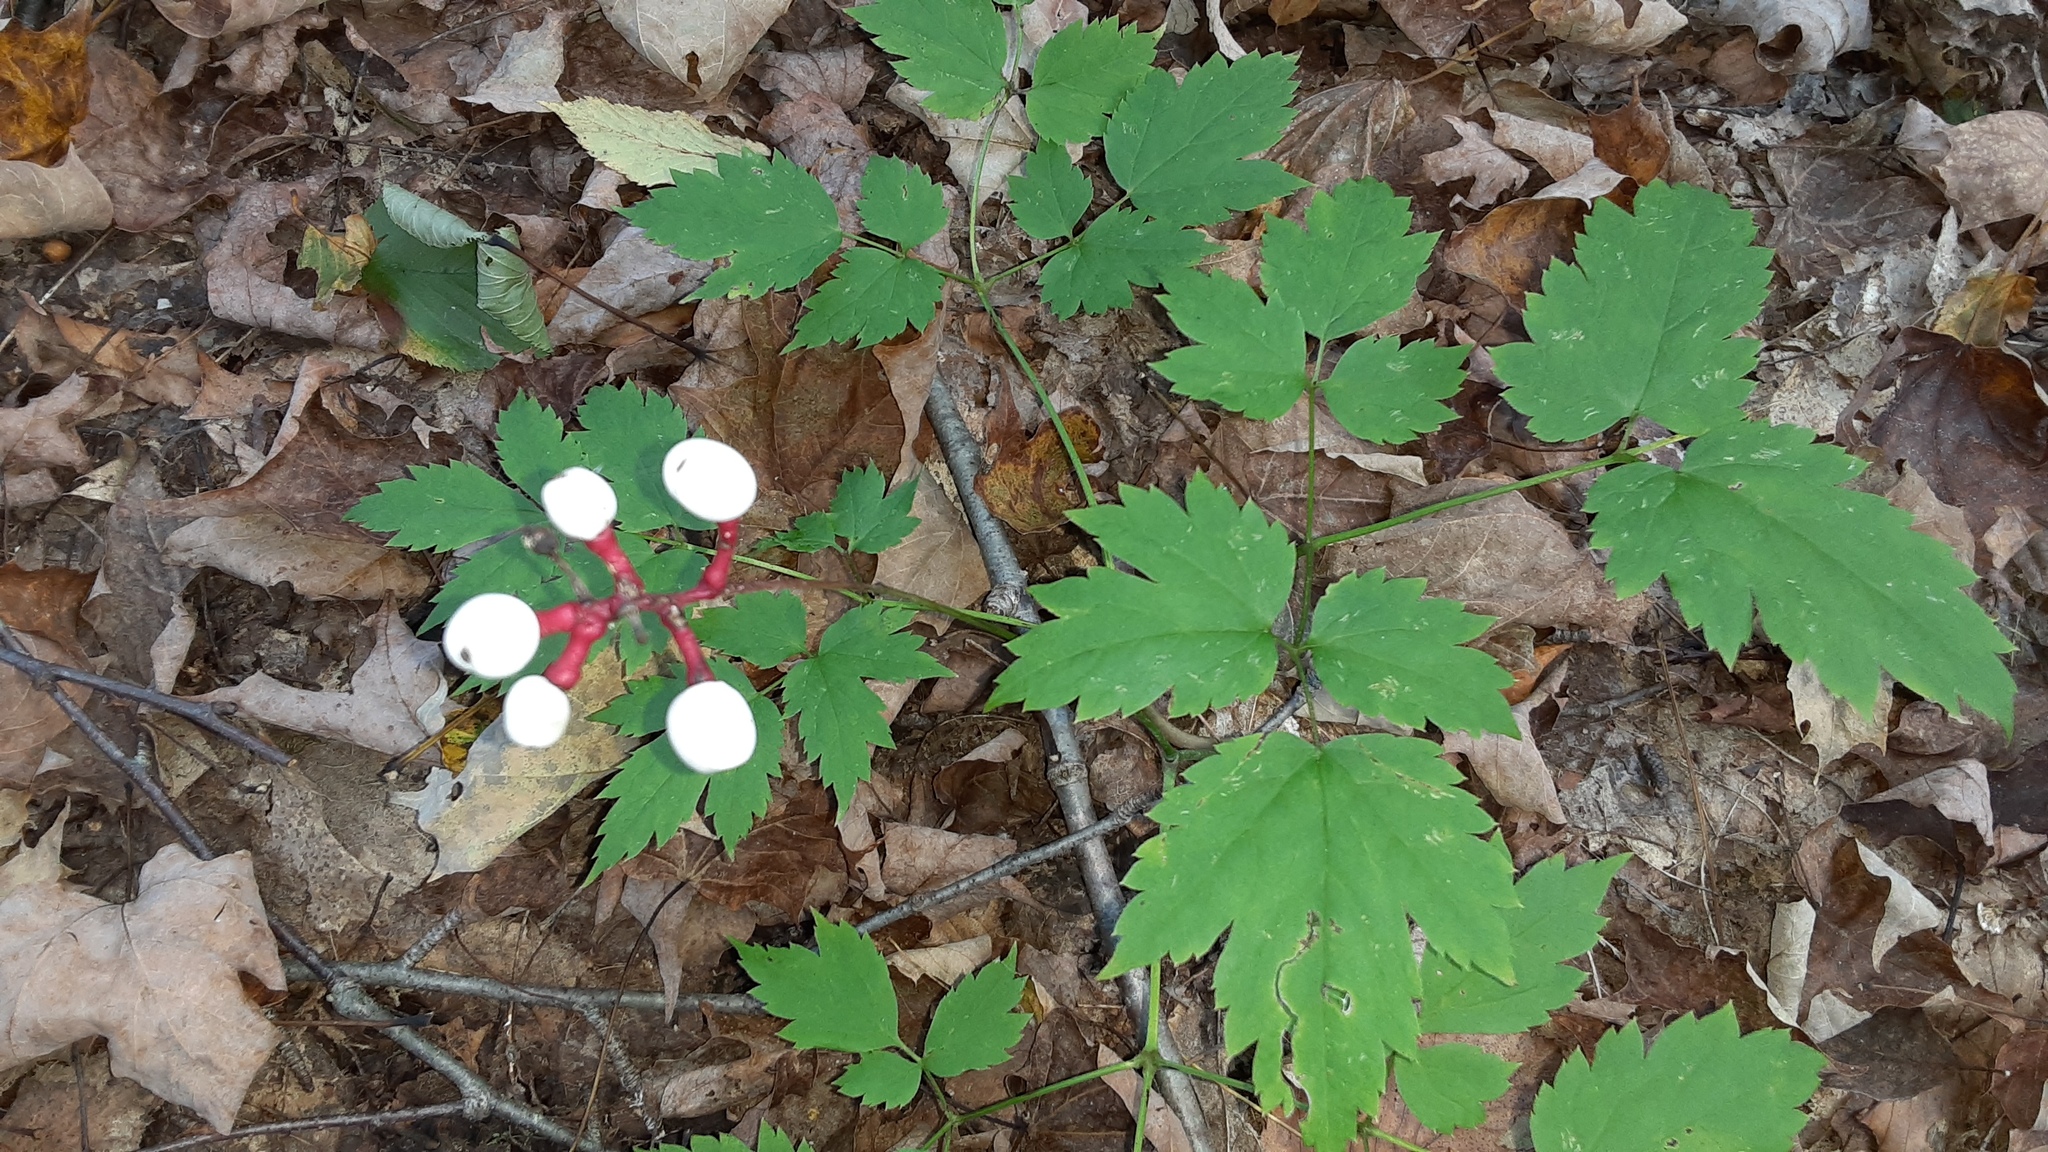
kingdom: Plantae
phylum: Tracheophyta
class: Magnoliopsida
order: Ranunculales
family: Ranunculaceae
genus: Actaea
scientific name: Actaea pachypoda
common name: Doll's-eyes
